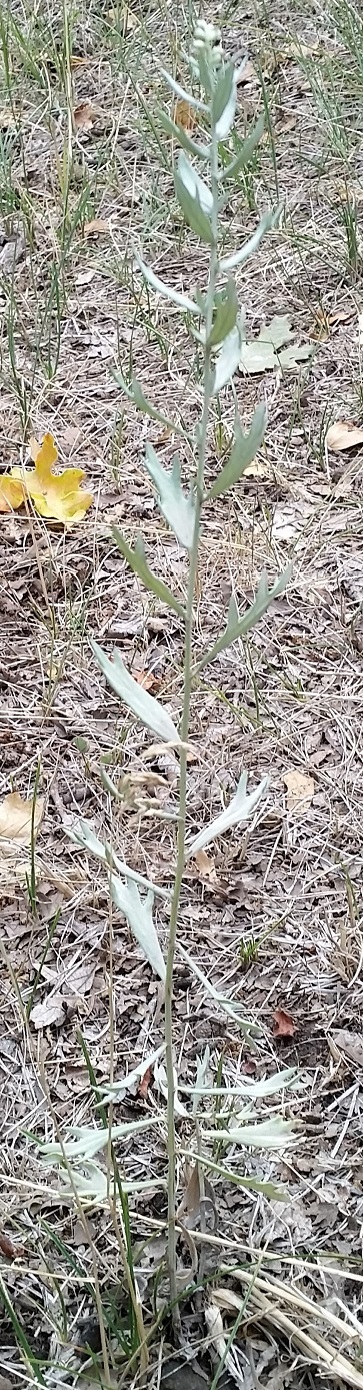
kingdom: Plantae
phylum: Tracheophyta
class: Magnoliopsida
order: Asterales
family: Asteraceae
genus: Artemisia
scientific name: Artemisia ludoviciana
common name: Western mugwort
